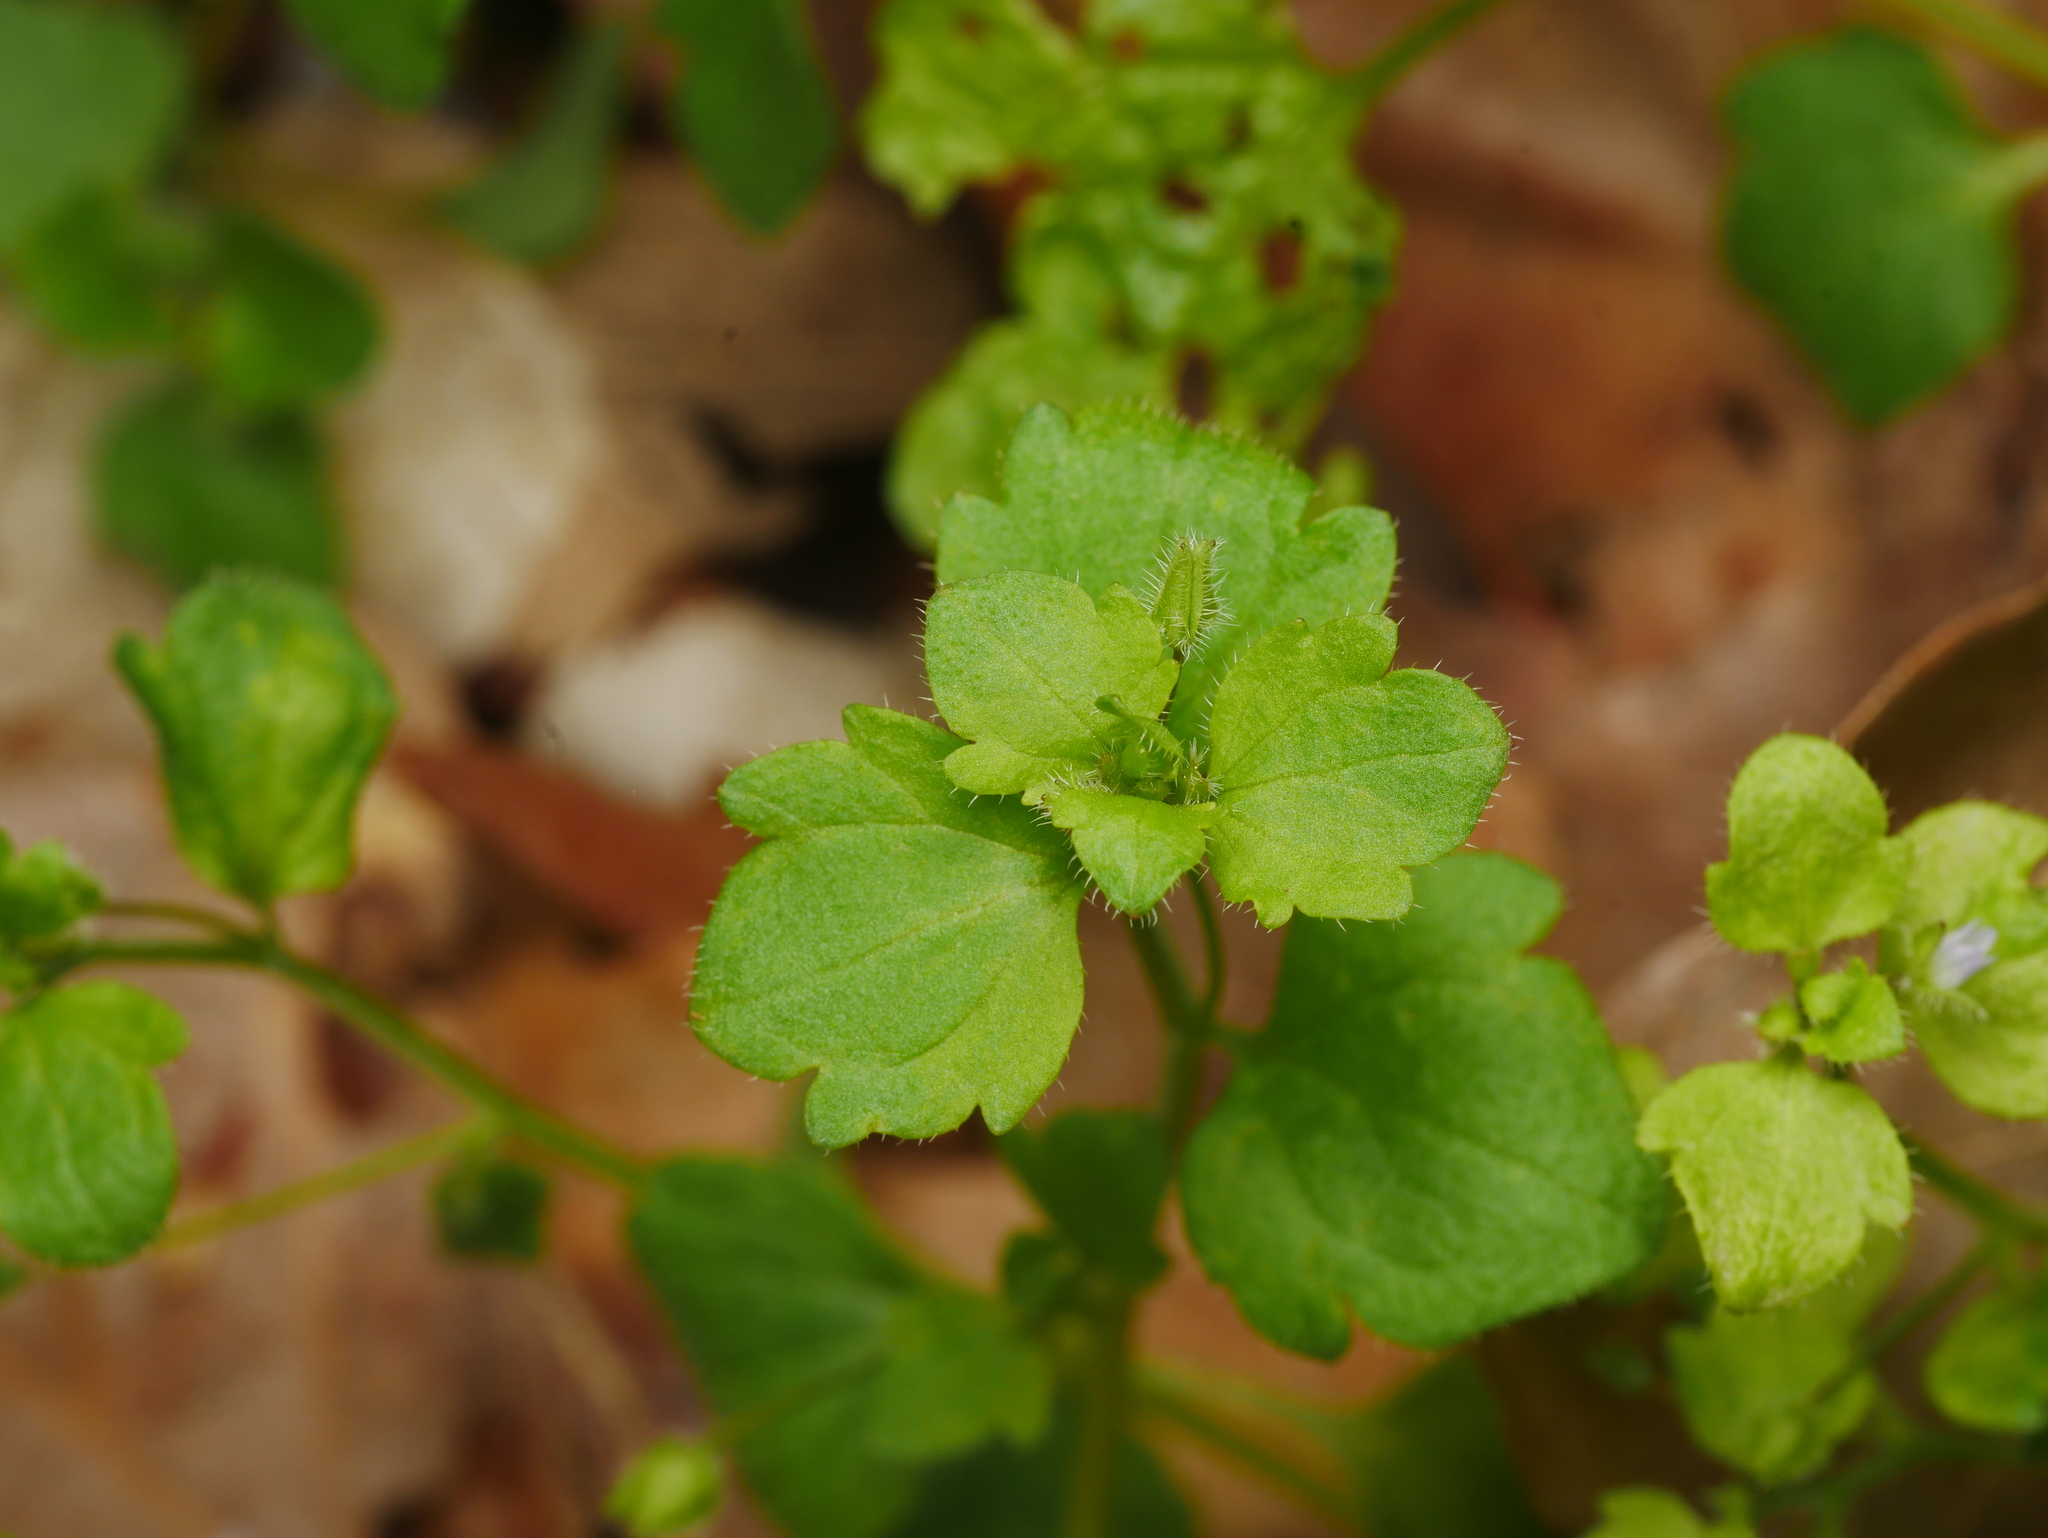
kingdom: Plantae
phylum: Tracheophyta
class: Magnoliopsida
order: Lamiales
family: Plantaginaceae
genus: Veronica
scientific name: Veronica sublobata
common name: False ivy-leaved speedwell
